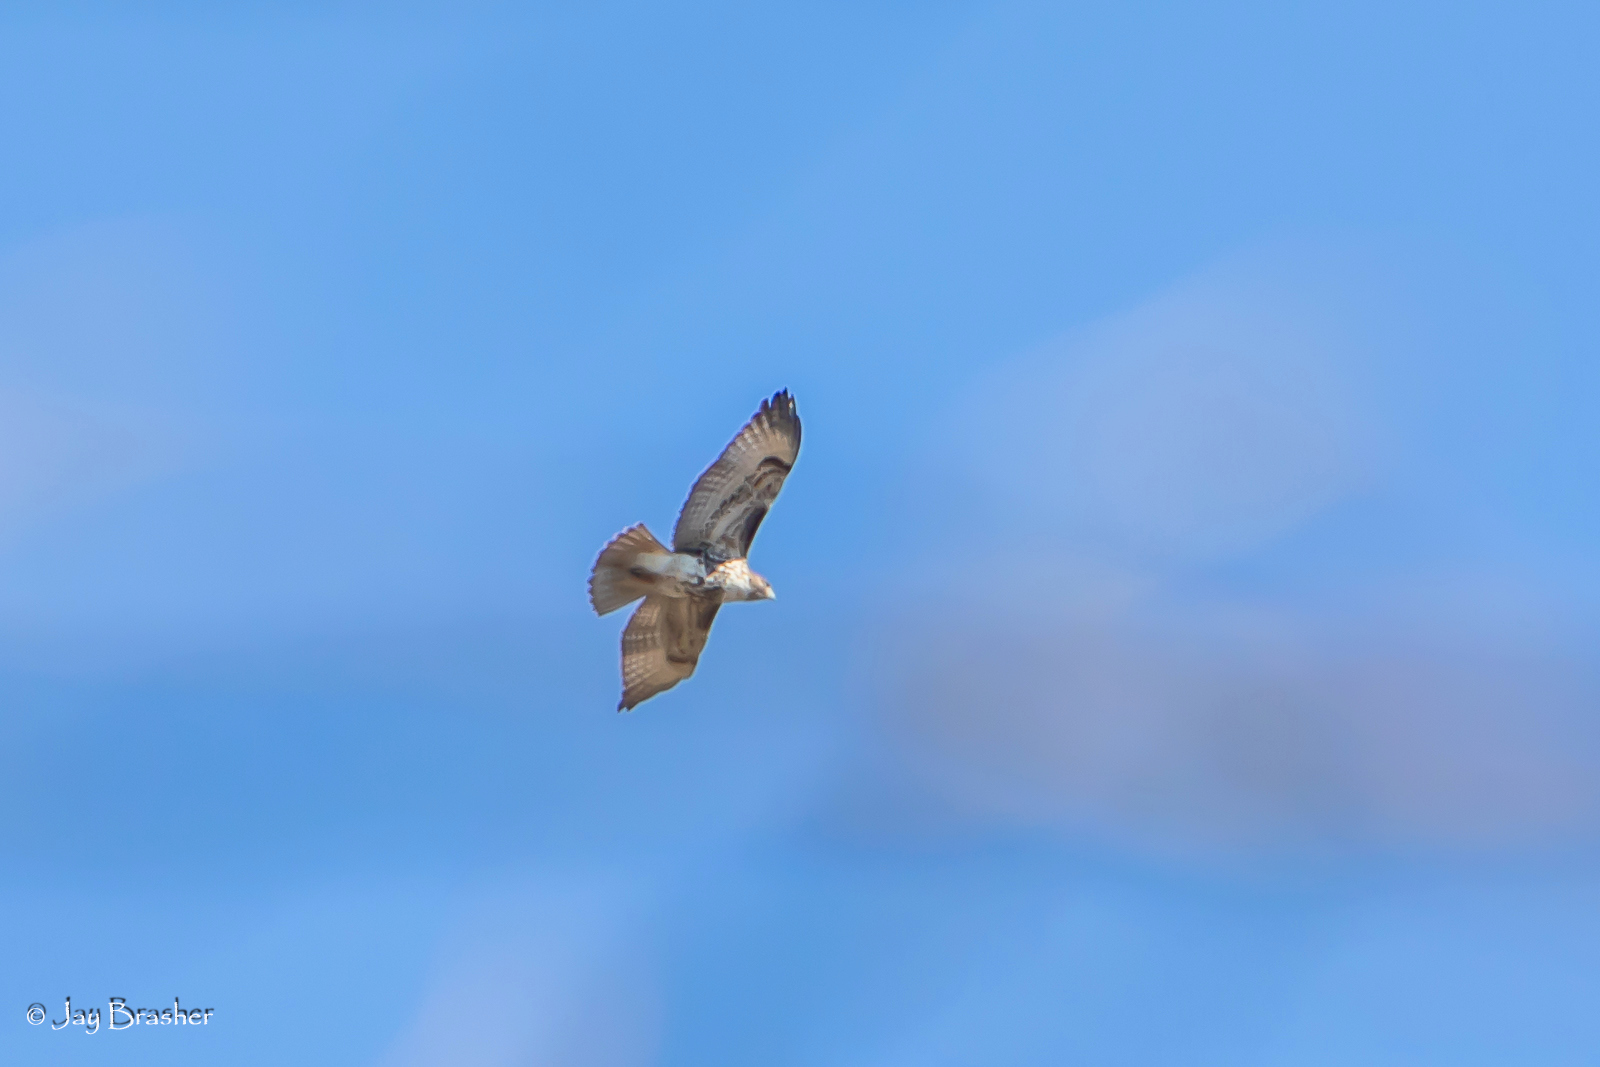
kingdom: Animalia
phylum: Chordata
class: Aves
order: Accipitriformes
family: Accipitridae
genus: Buteo
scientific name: Buteo jamaicensis
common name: Red-tailed hawk
